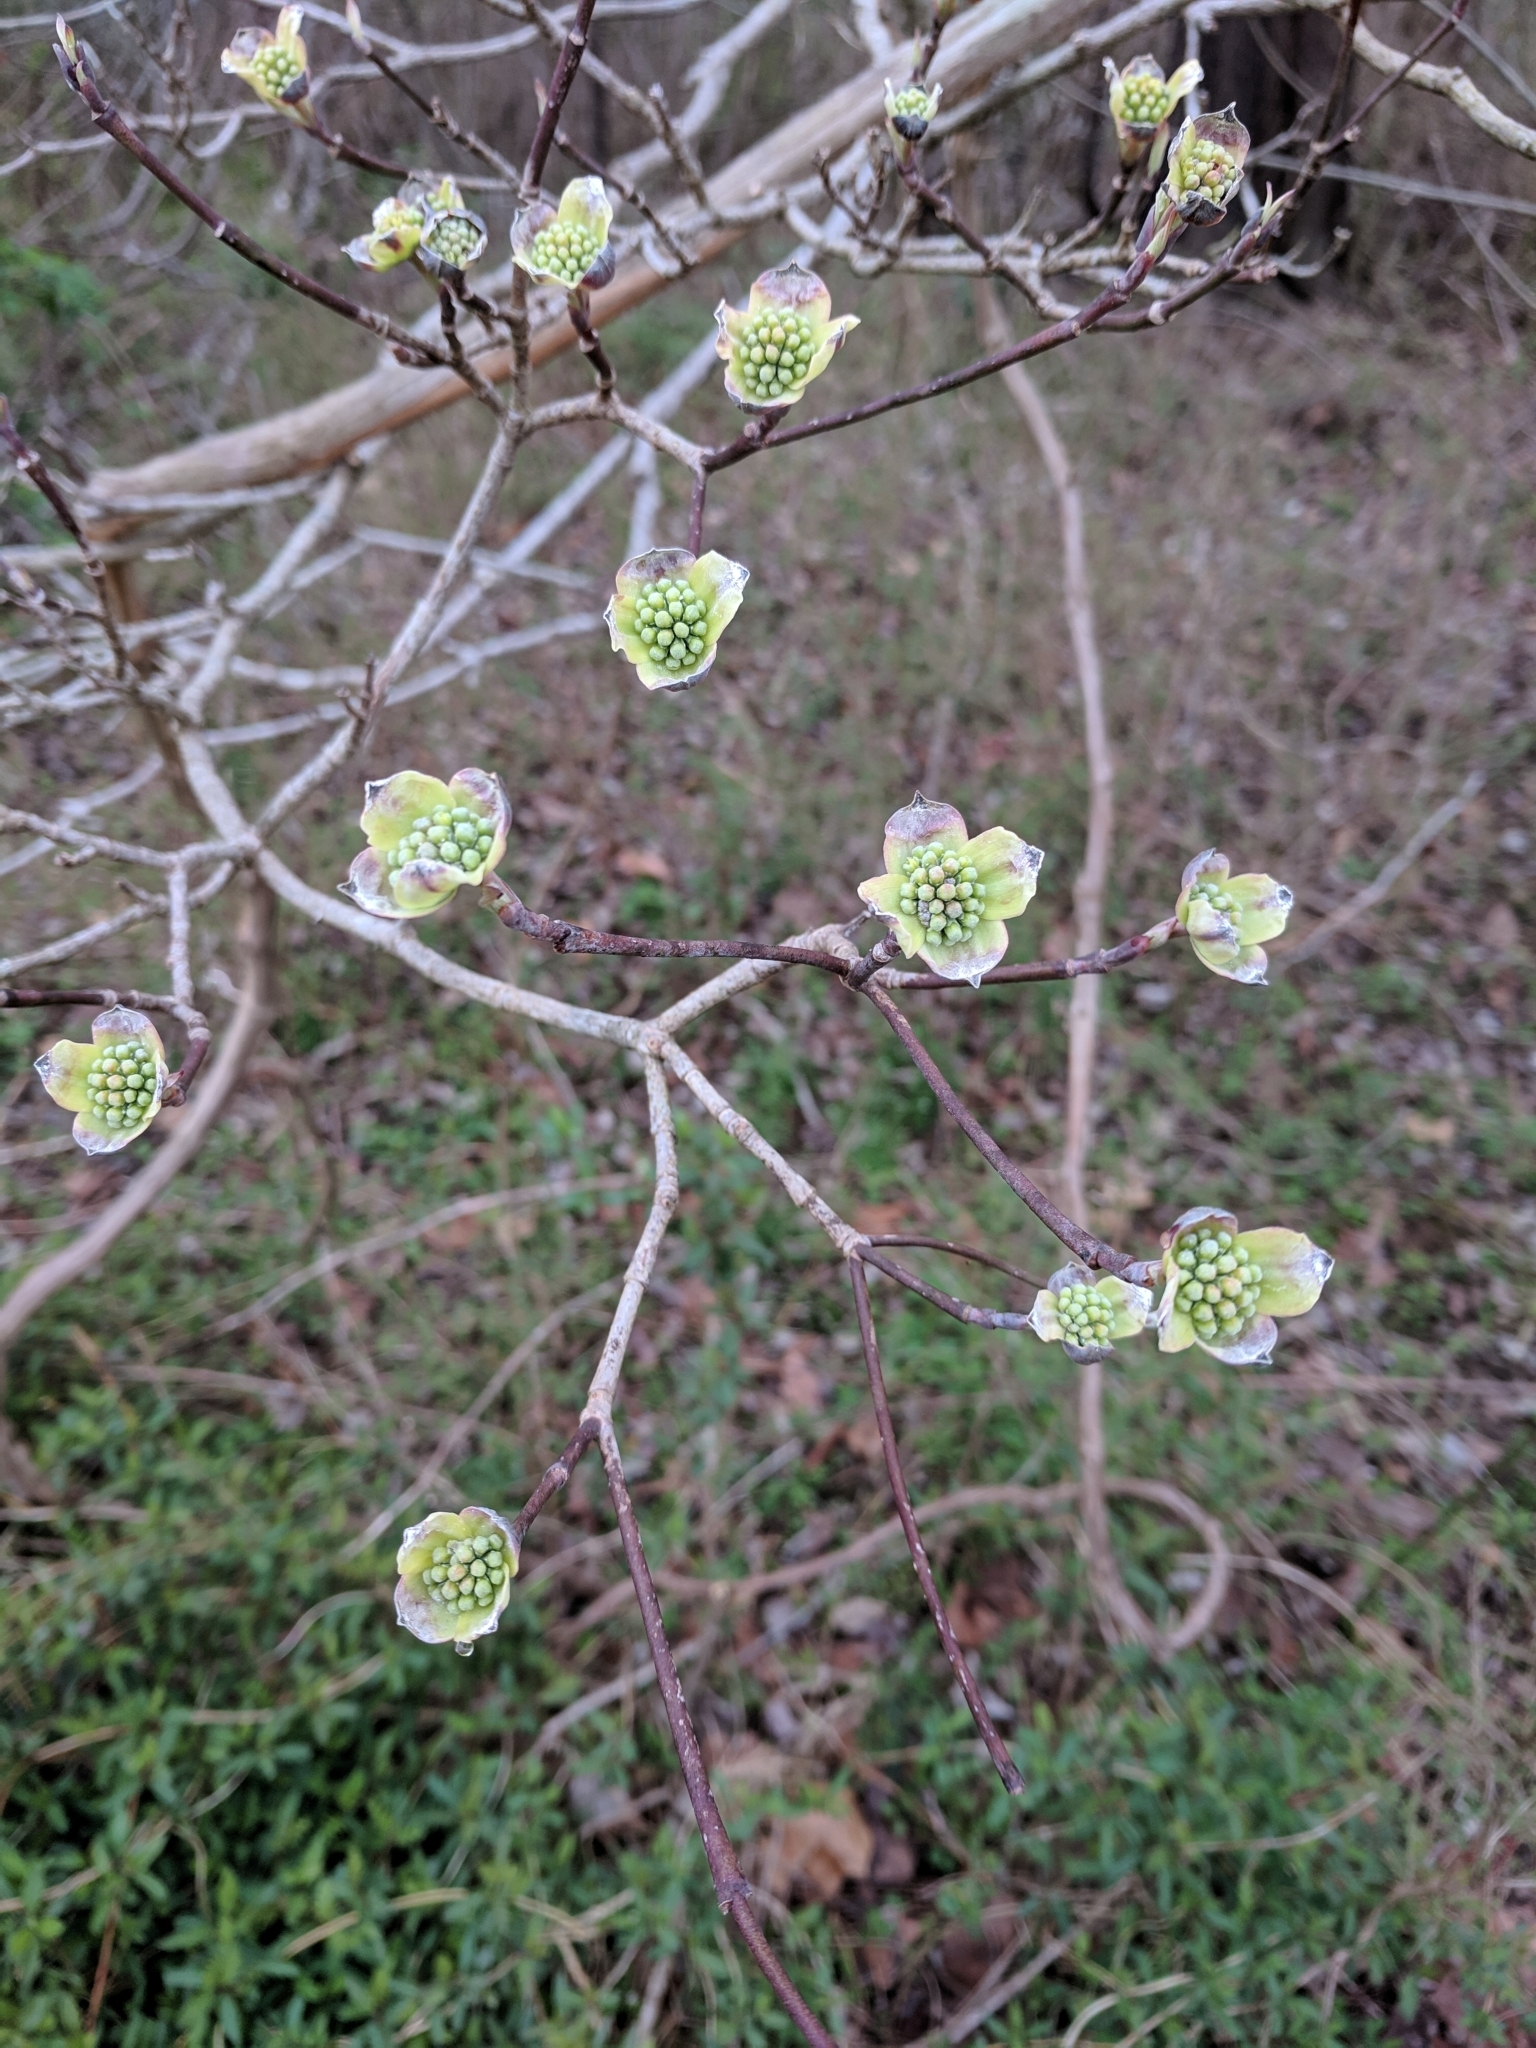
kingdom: Plantae
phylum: Tracheophyta
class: Magnoliopsida
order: Cornales
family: Cornaceae
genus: Cornus
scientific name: Cornus florida
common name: Flowering dogwood
